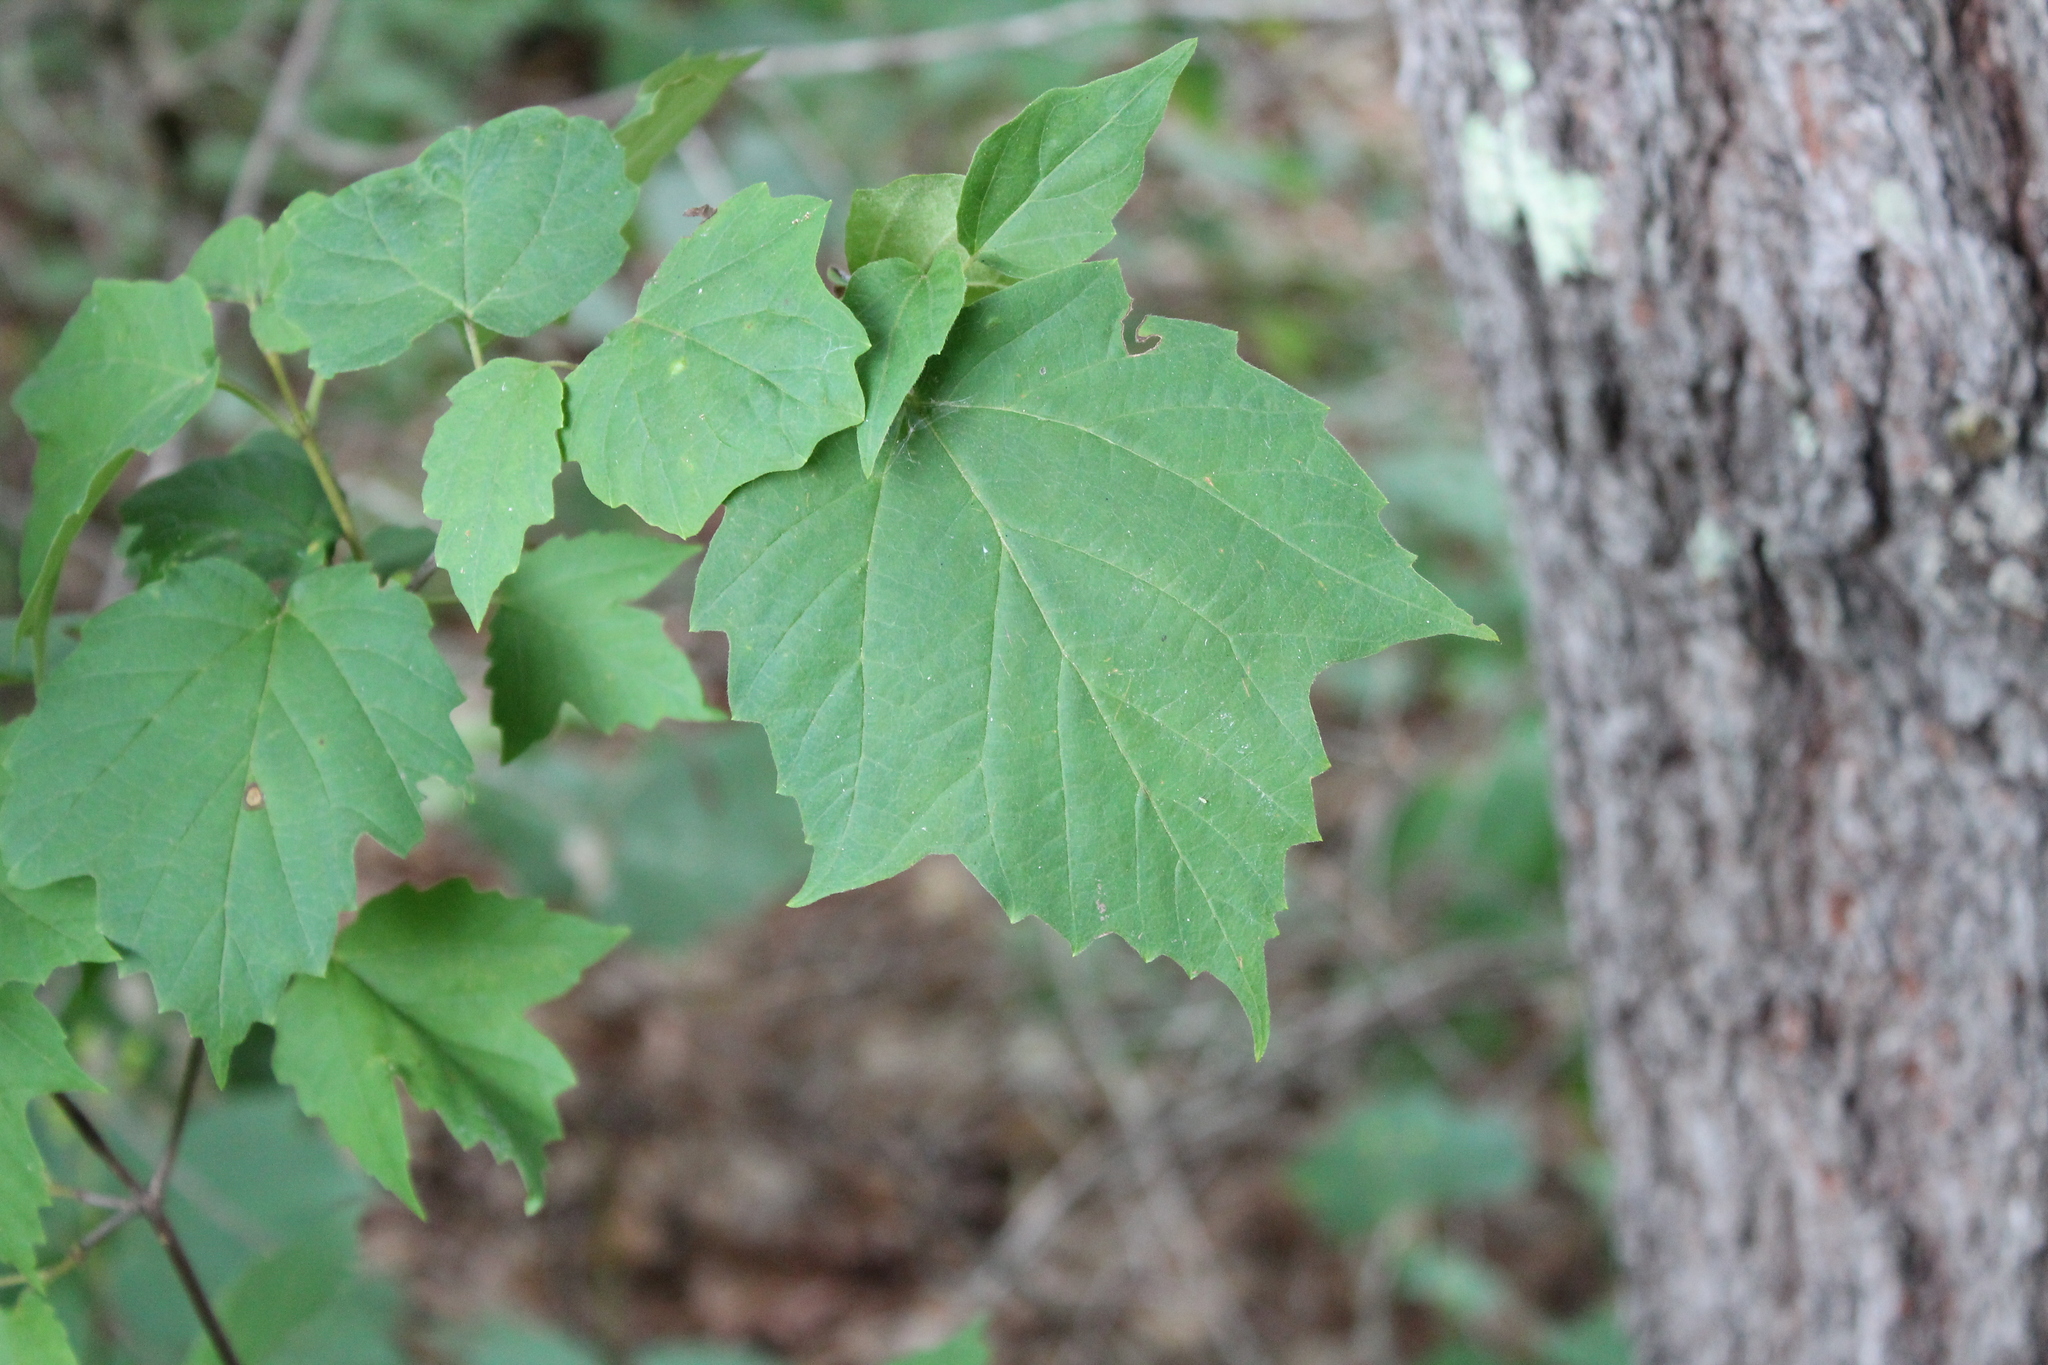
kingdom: Plantae
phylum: Tracheophyta
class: Magnoliopsida
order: Dipsacales
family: Viburnaceae
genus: Viburnum
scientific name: Viburnum acerifolium
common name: Dockmackie
